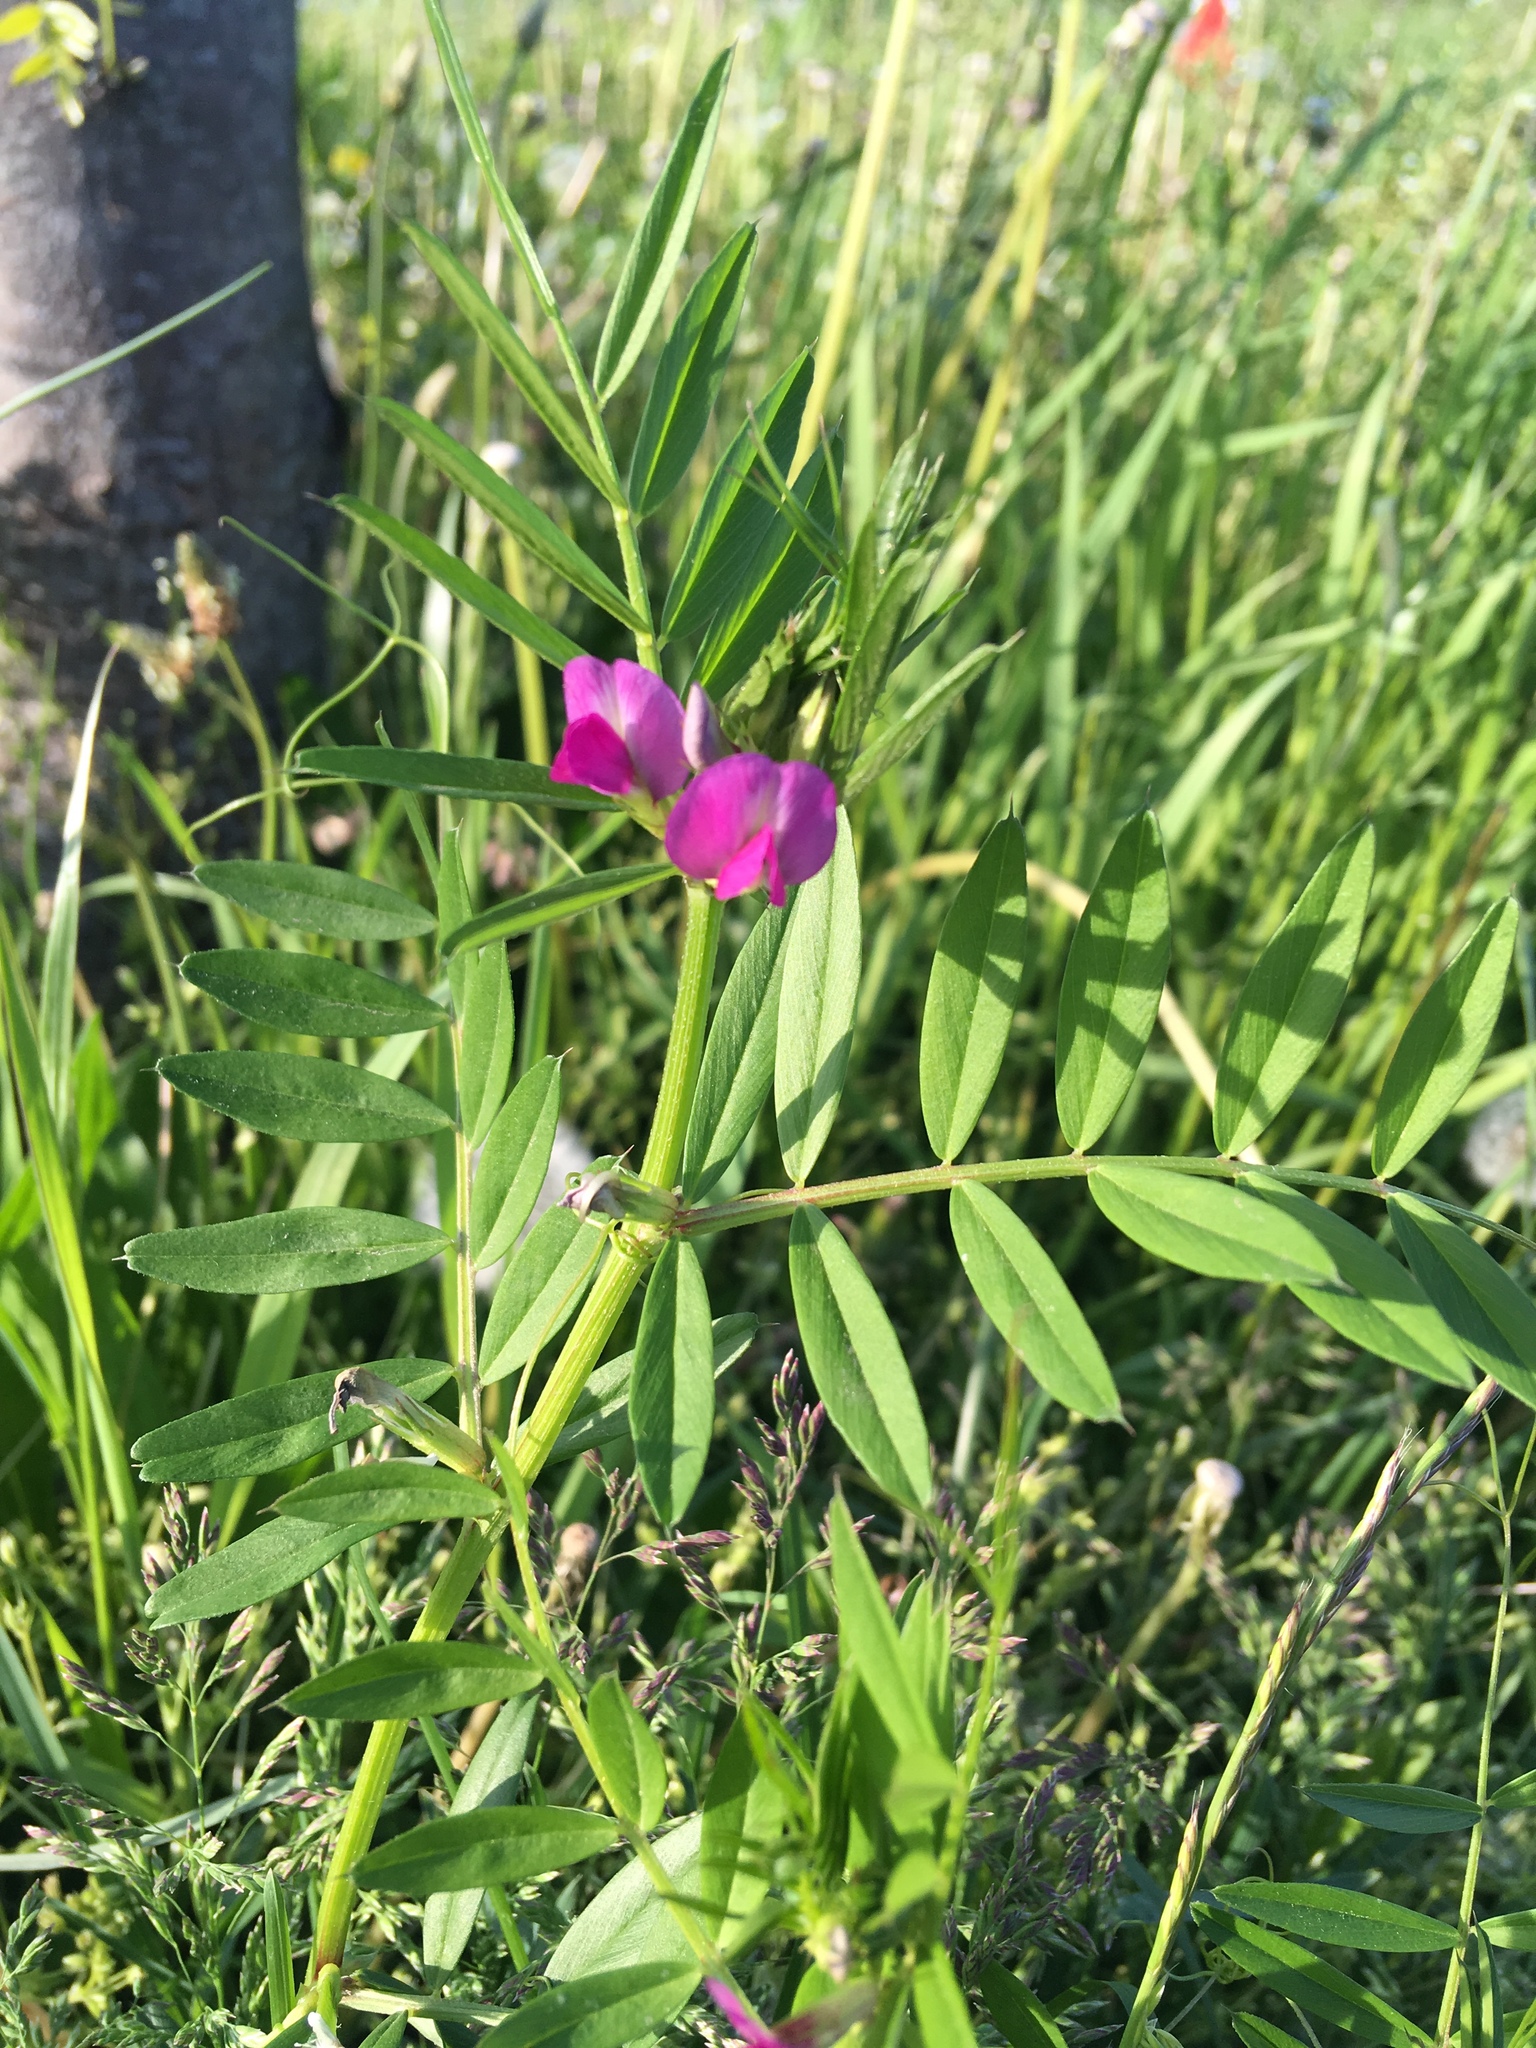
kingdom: Plantae
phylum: Tracheophyta
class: Magnoliopsida
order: Fabales
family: Fabaceae
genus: Vicia
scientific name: Vicia sativa
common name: Garden vetch
